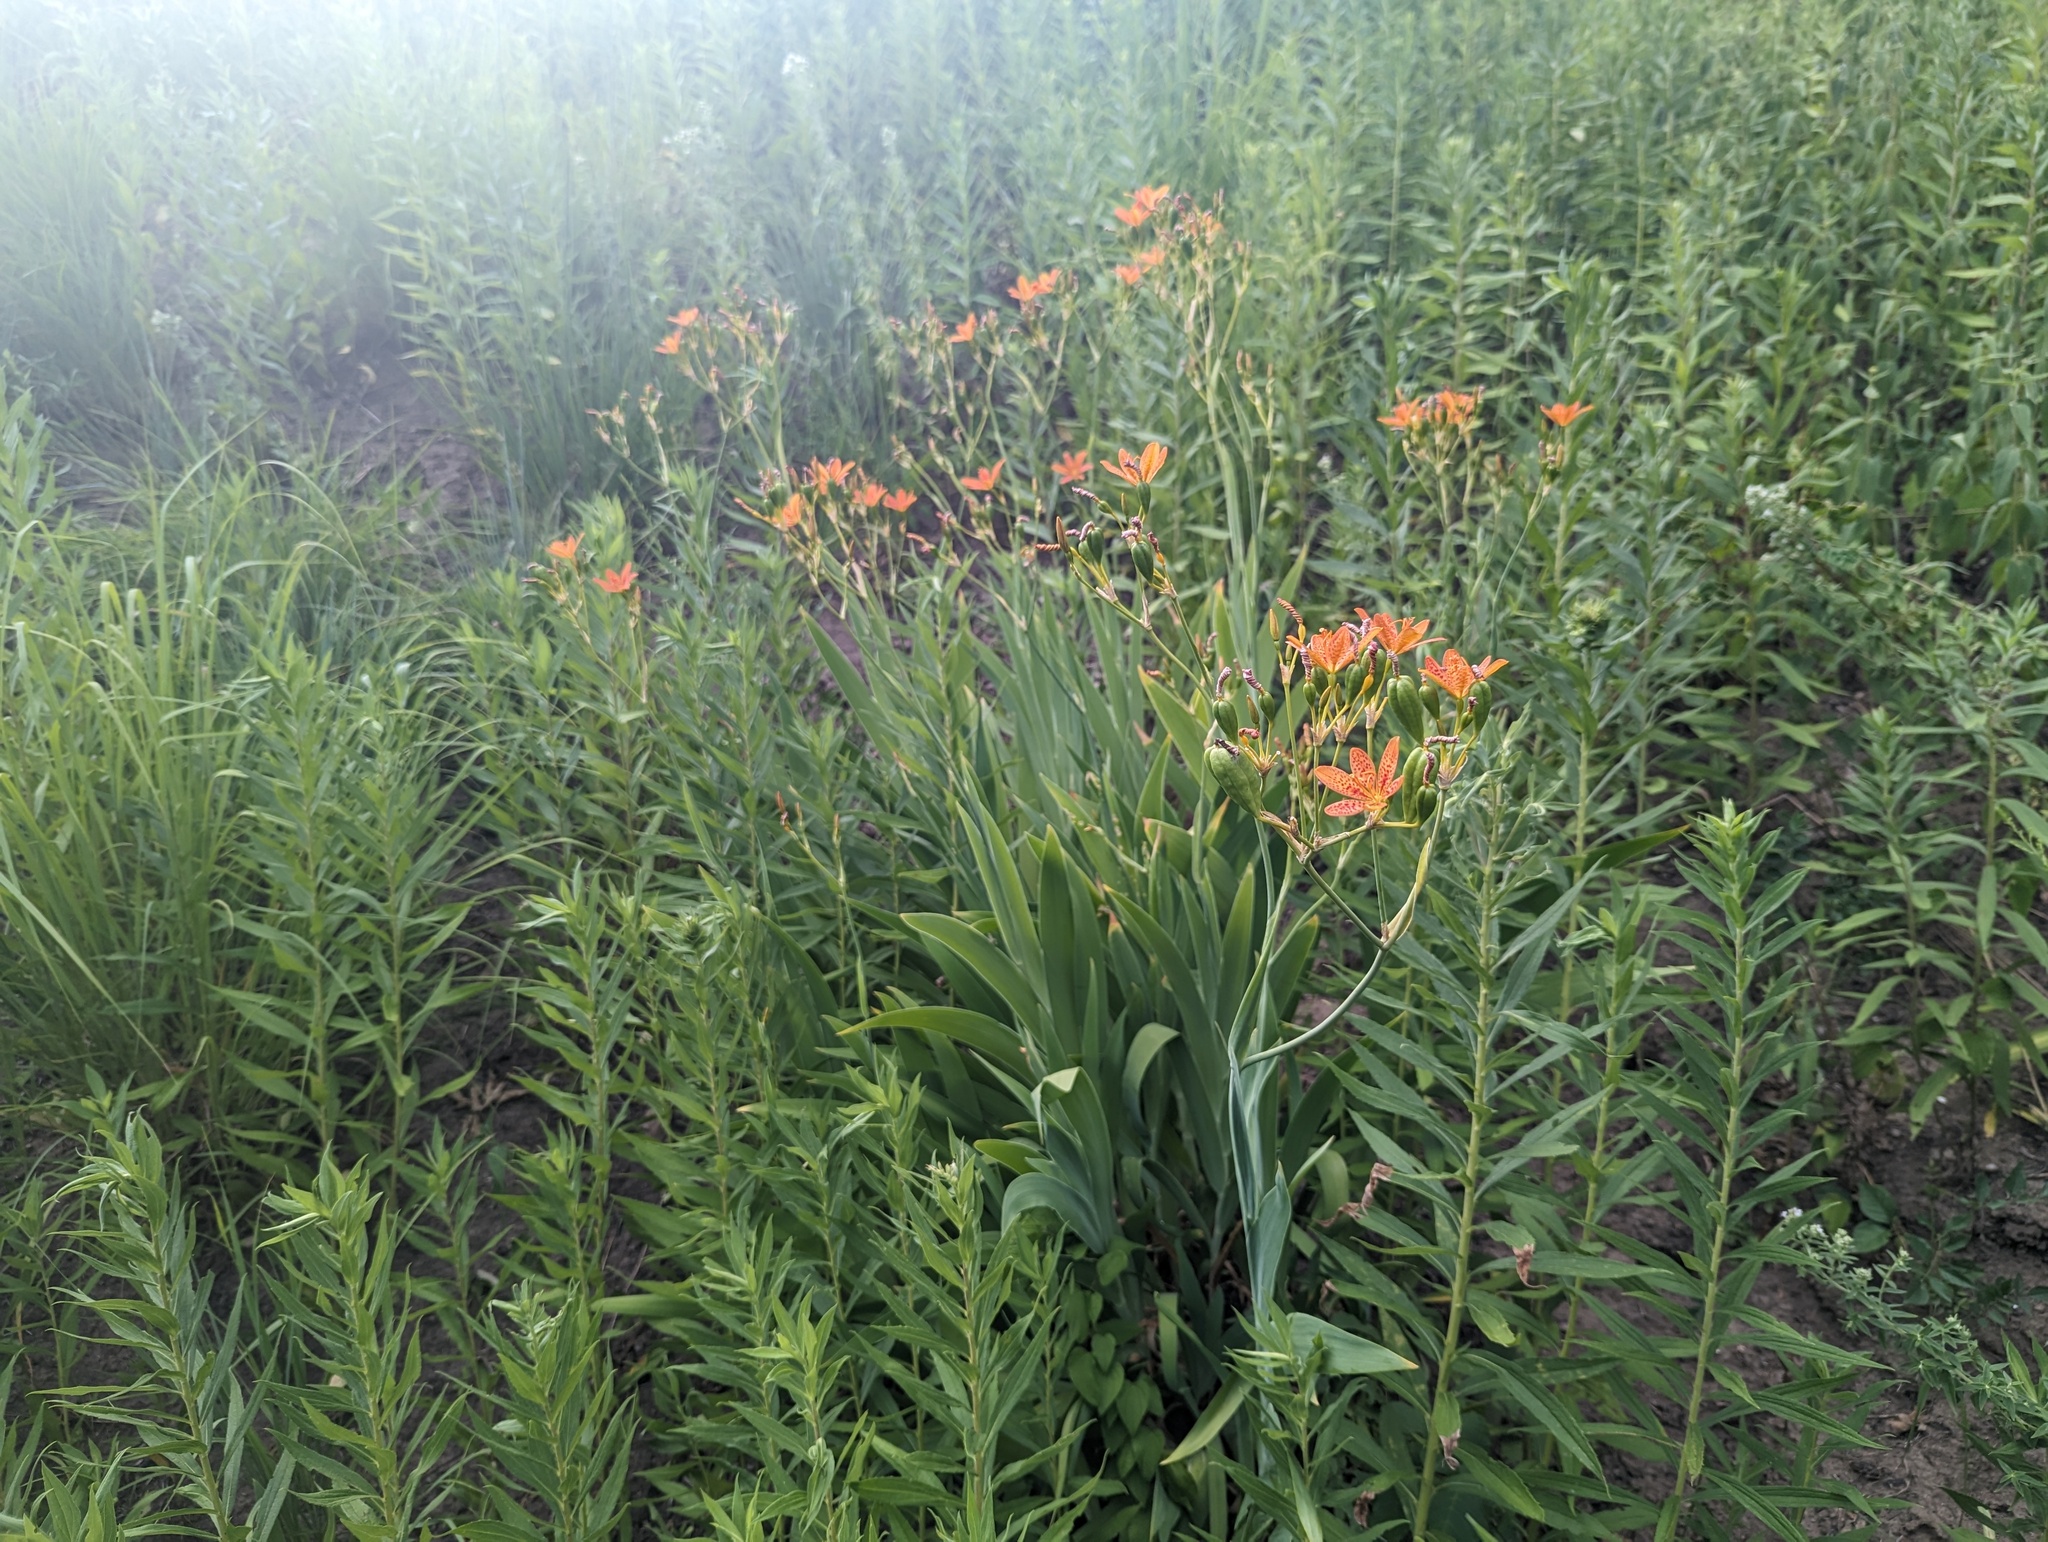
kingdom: Plantae
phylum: Tracheophyta
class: Liliopsida
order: Asparagales
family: Iridaceae
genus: Iris
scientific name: Iris domestica
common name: Belamcanda
